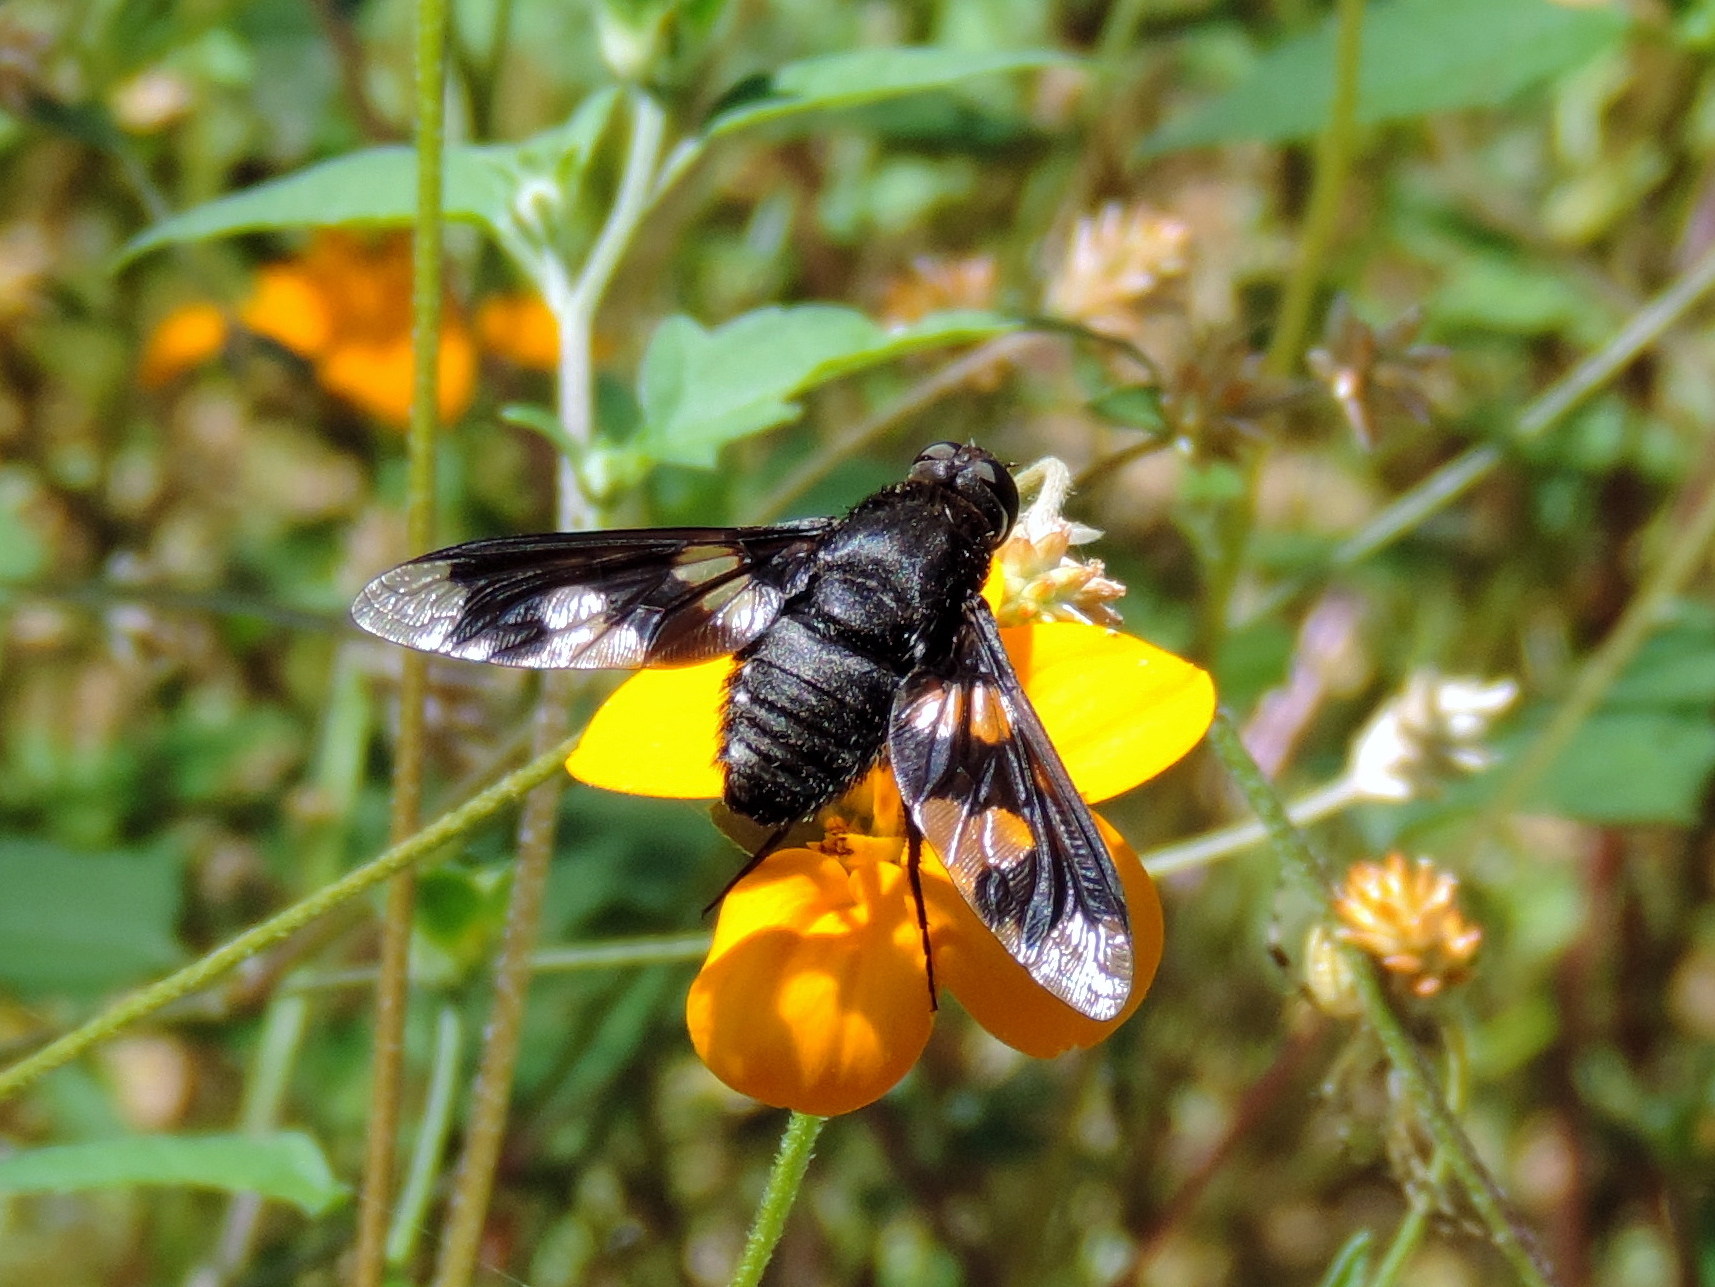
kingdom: Animalia
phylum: Arthropoda
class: Insecta
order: Diptera
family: Bombyliidae
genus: Exoprosopa
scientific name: Exoprosopa
